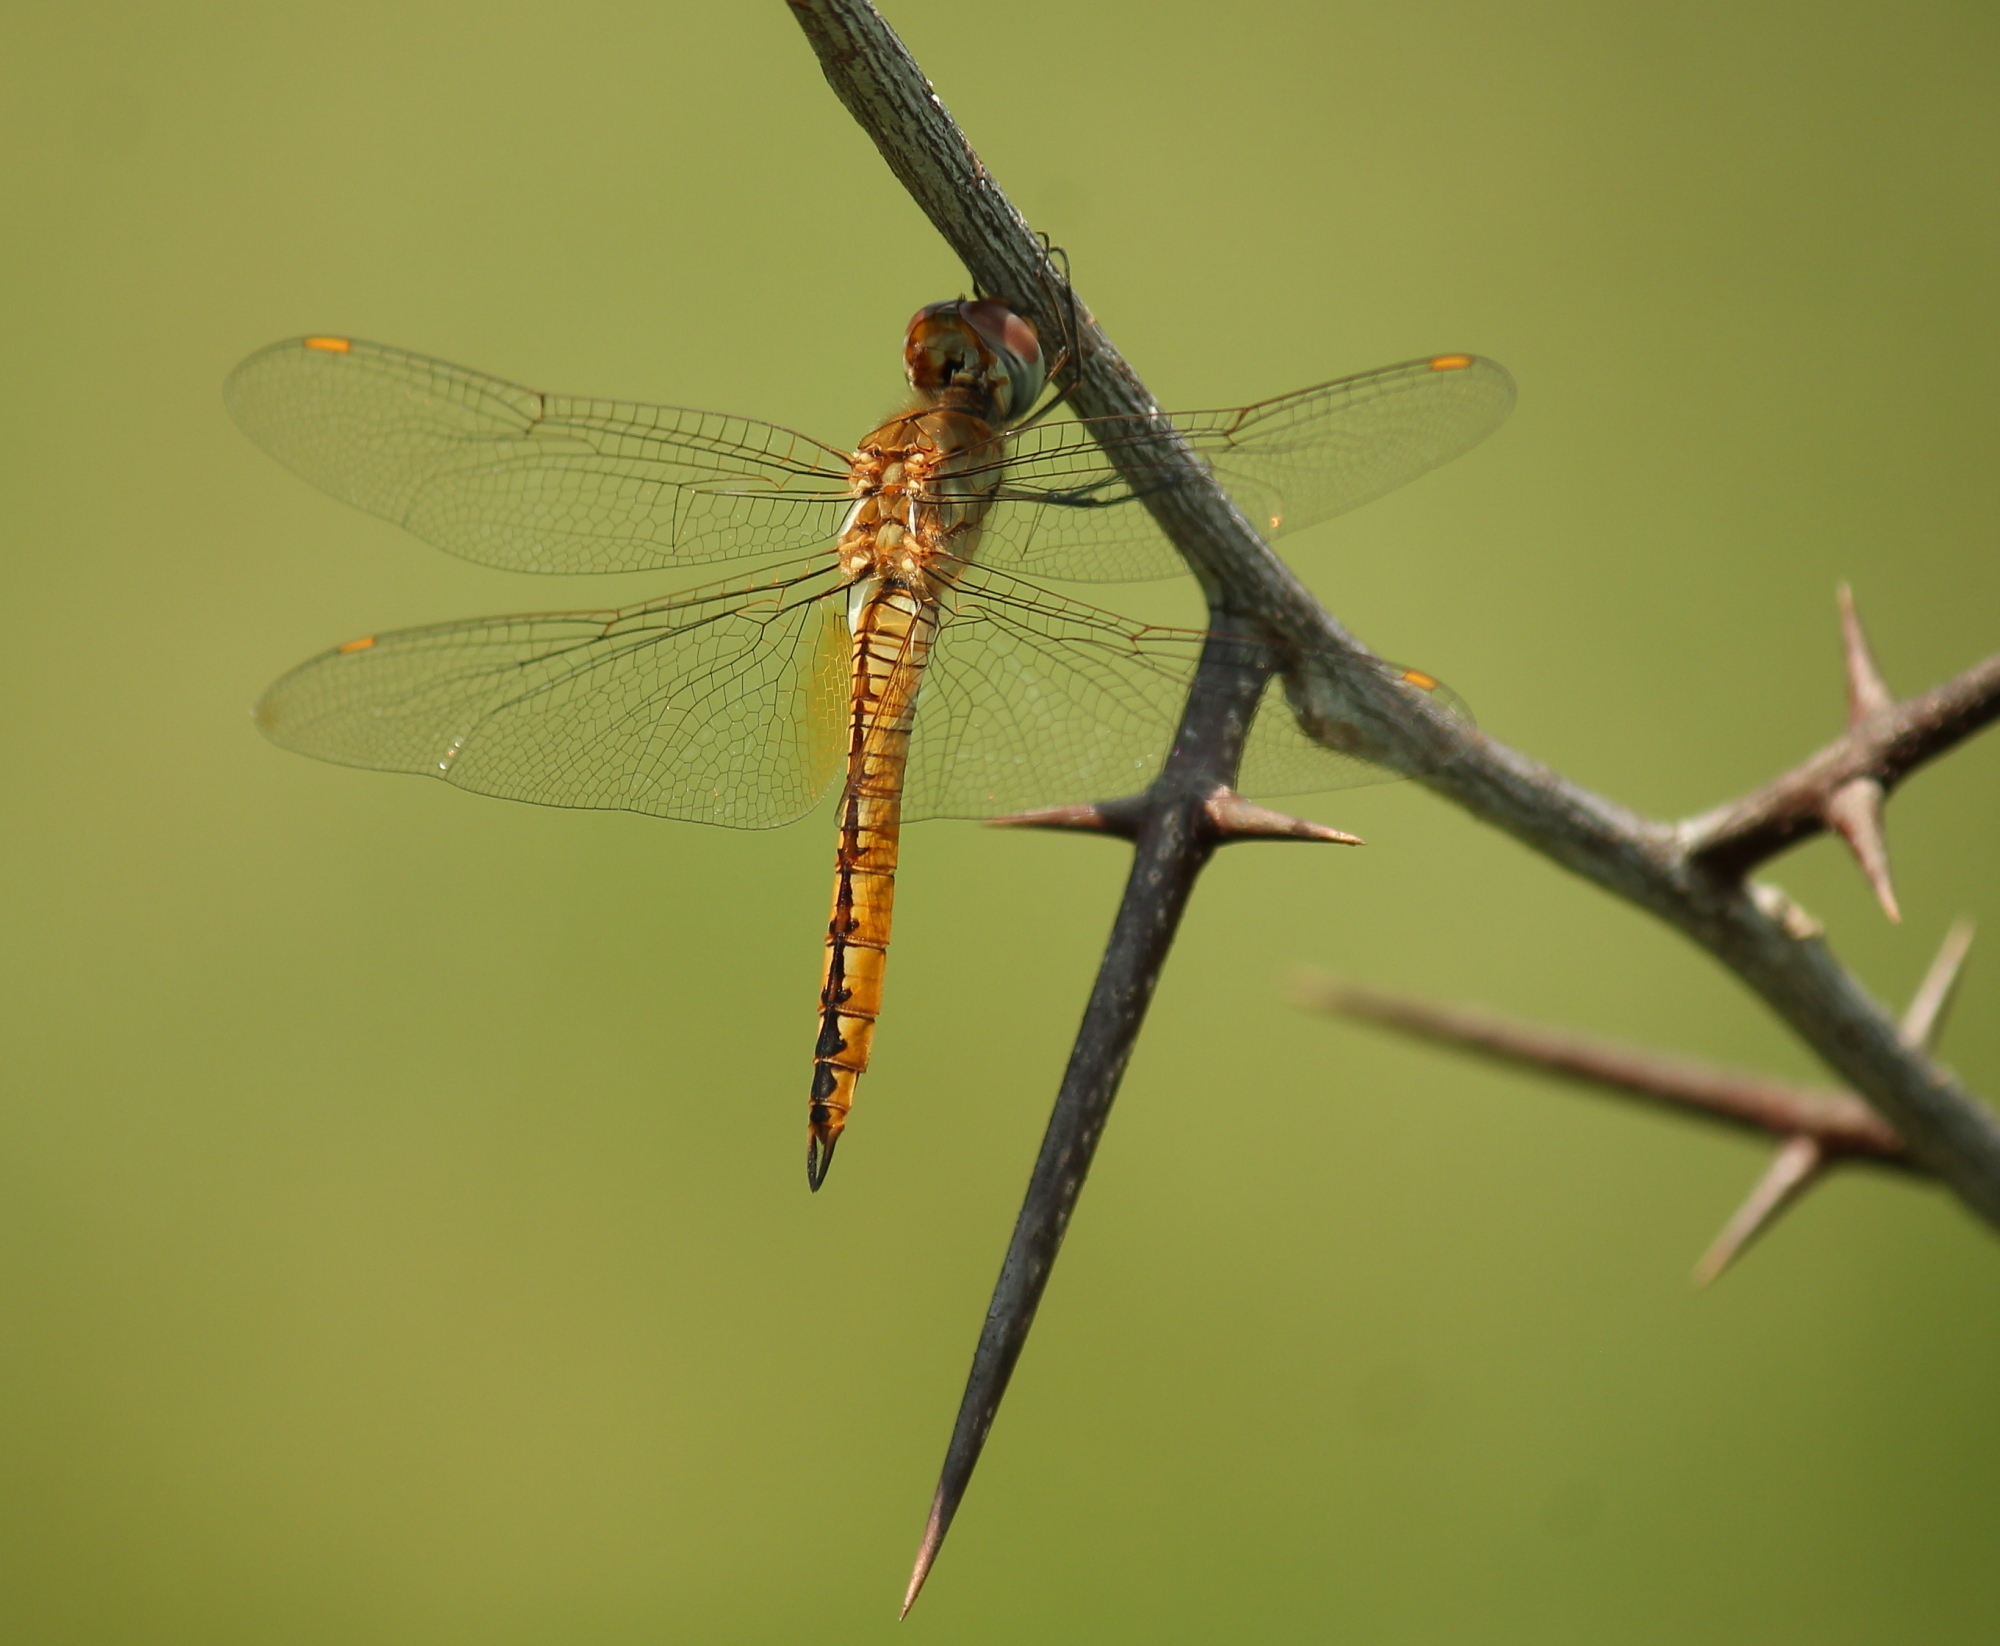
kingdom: Animalia
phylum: Arthropoda
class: Insecta
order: Odonata
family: Libellulidae
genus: Pantala
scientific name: Pantala flavescens
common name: Wandering glider
